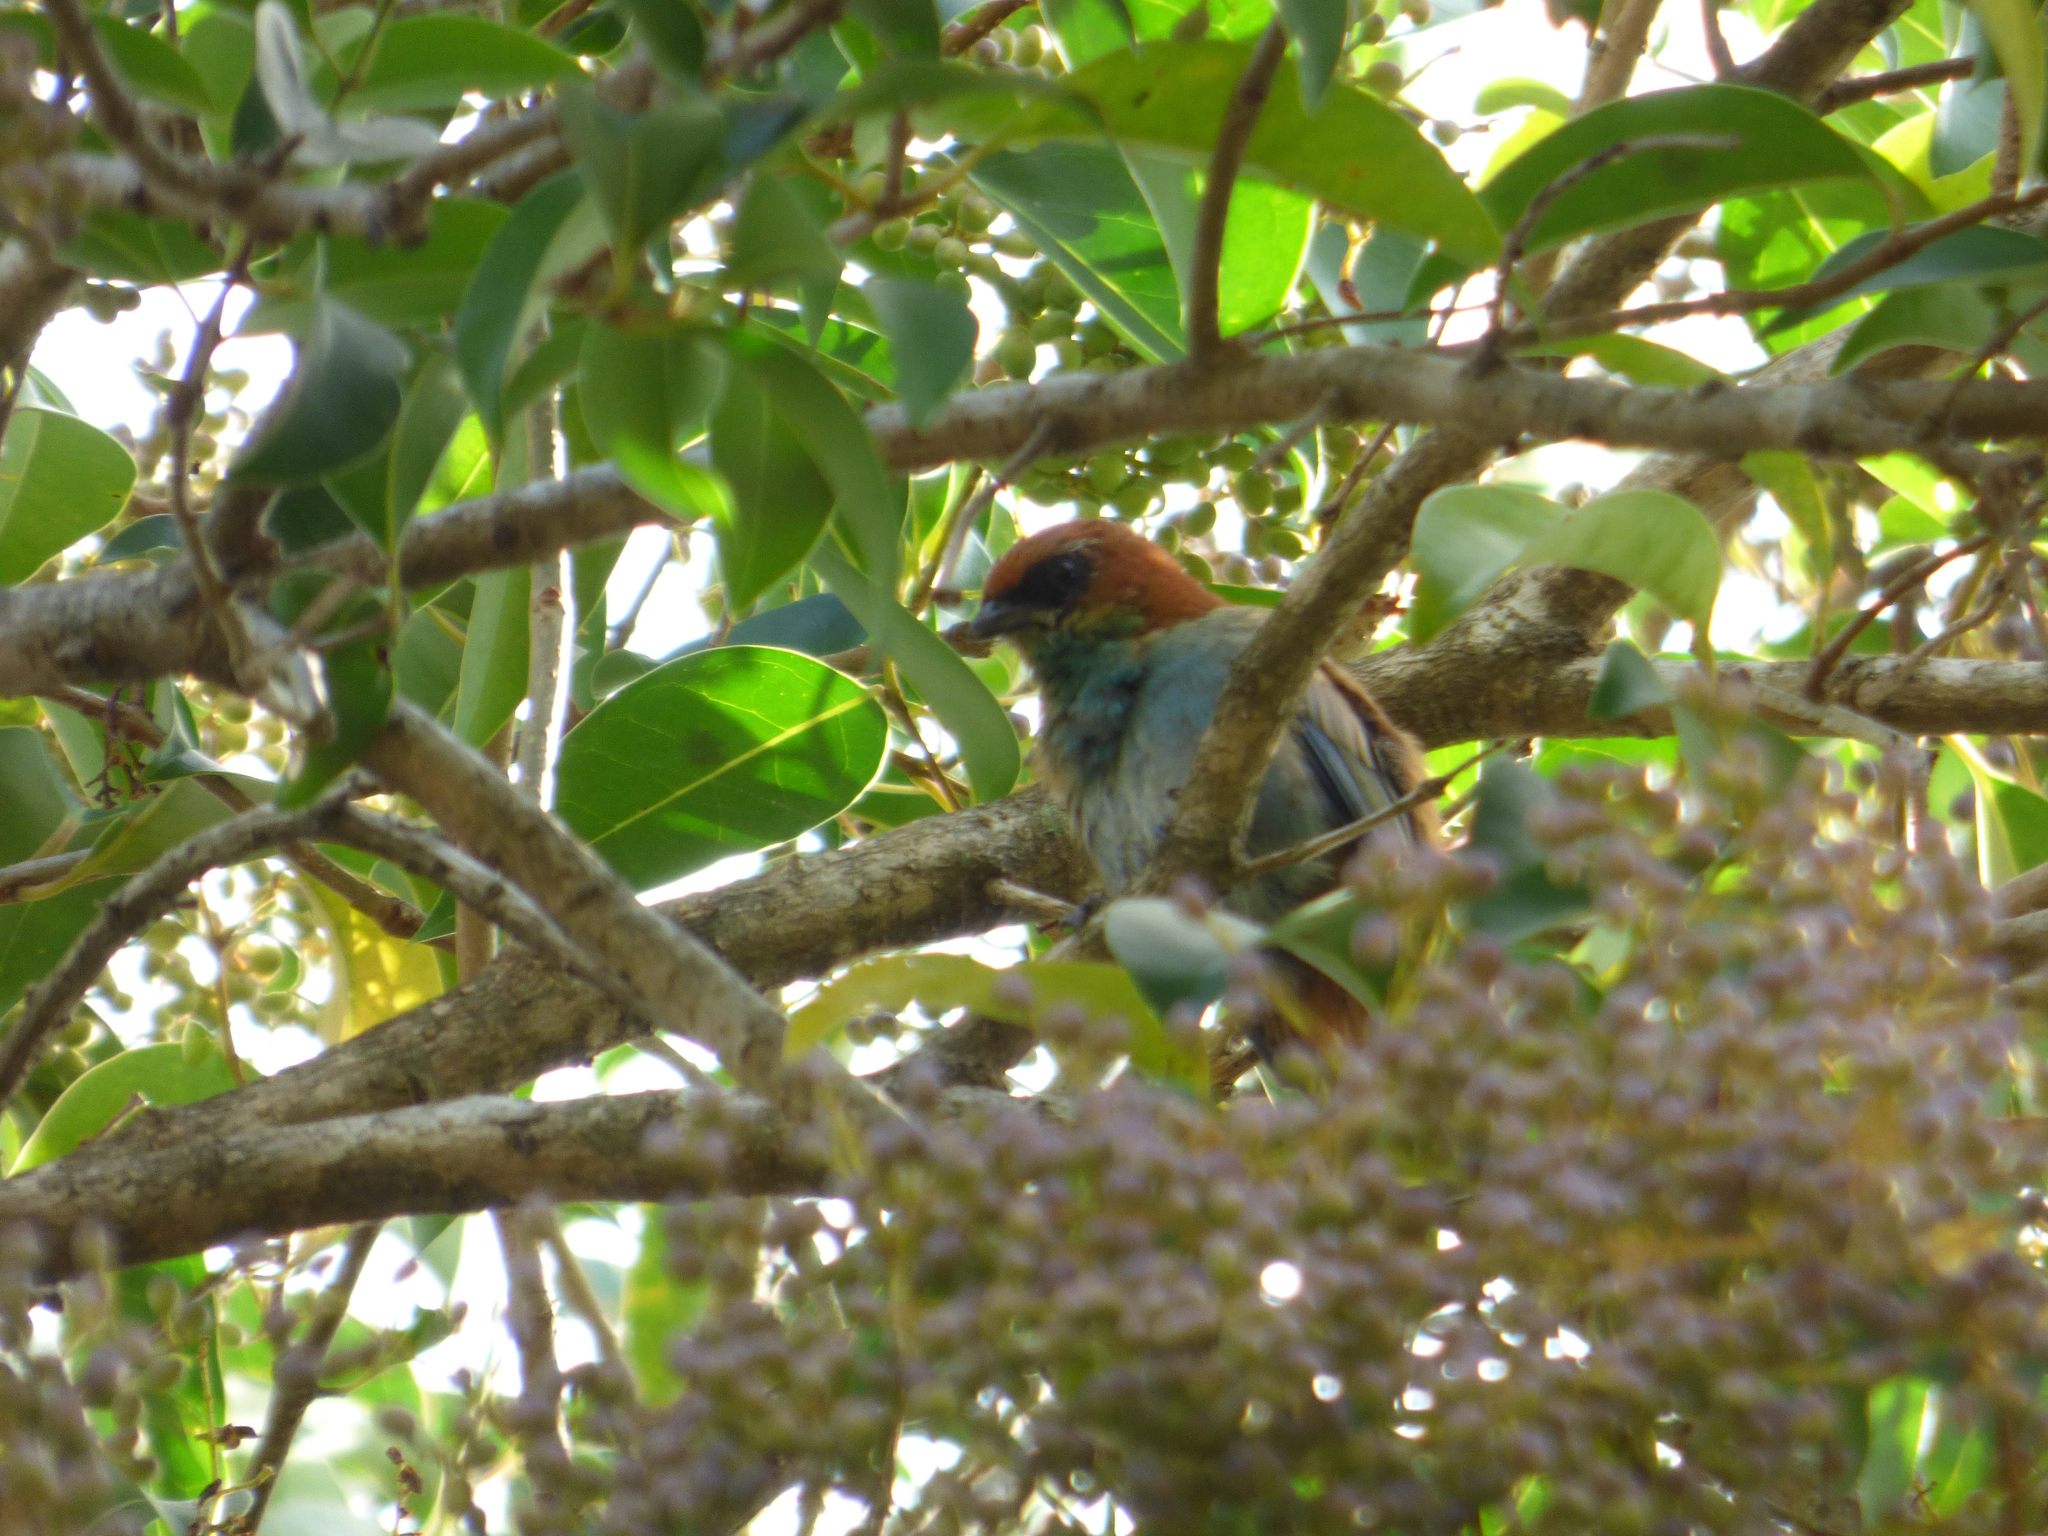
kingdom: Animalia
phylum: Chordata
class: Aves
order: Passeriformes
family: Thraupidae
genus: Stilpnia
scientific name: Stilpnia preciosa
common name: Chestnut-backed tanager
